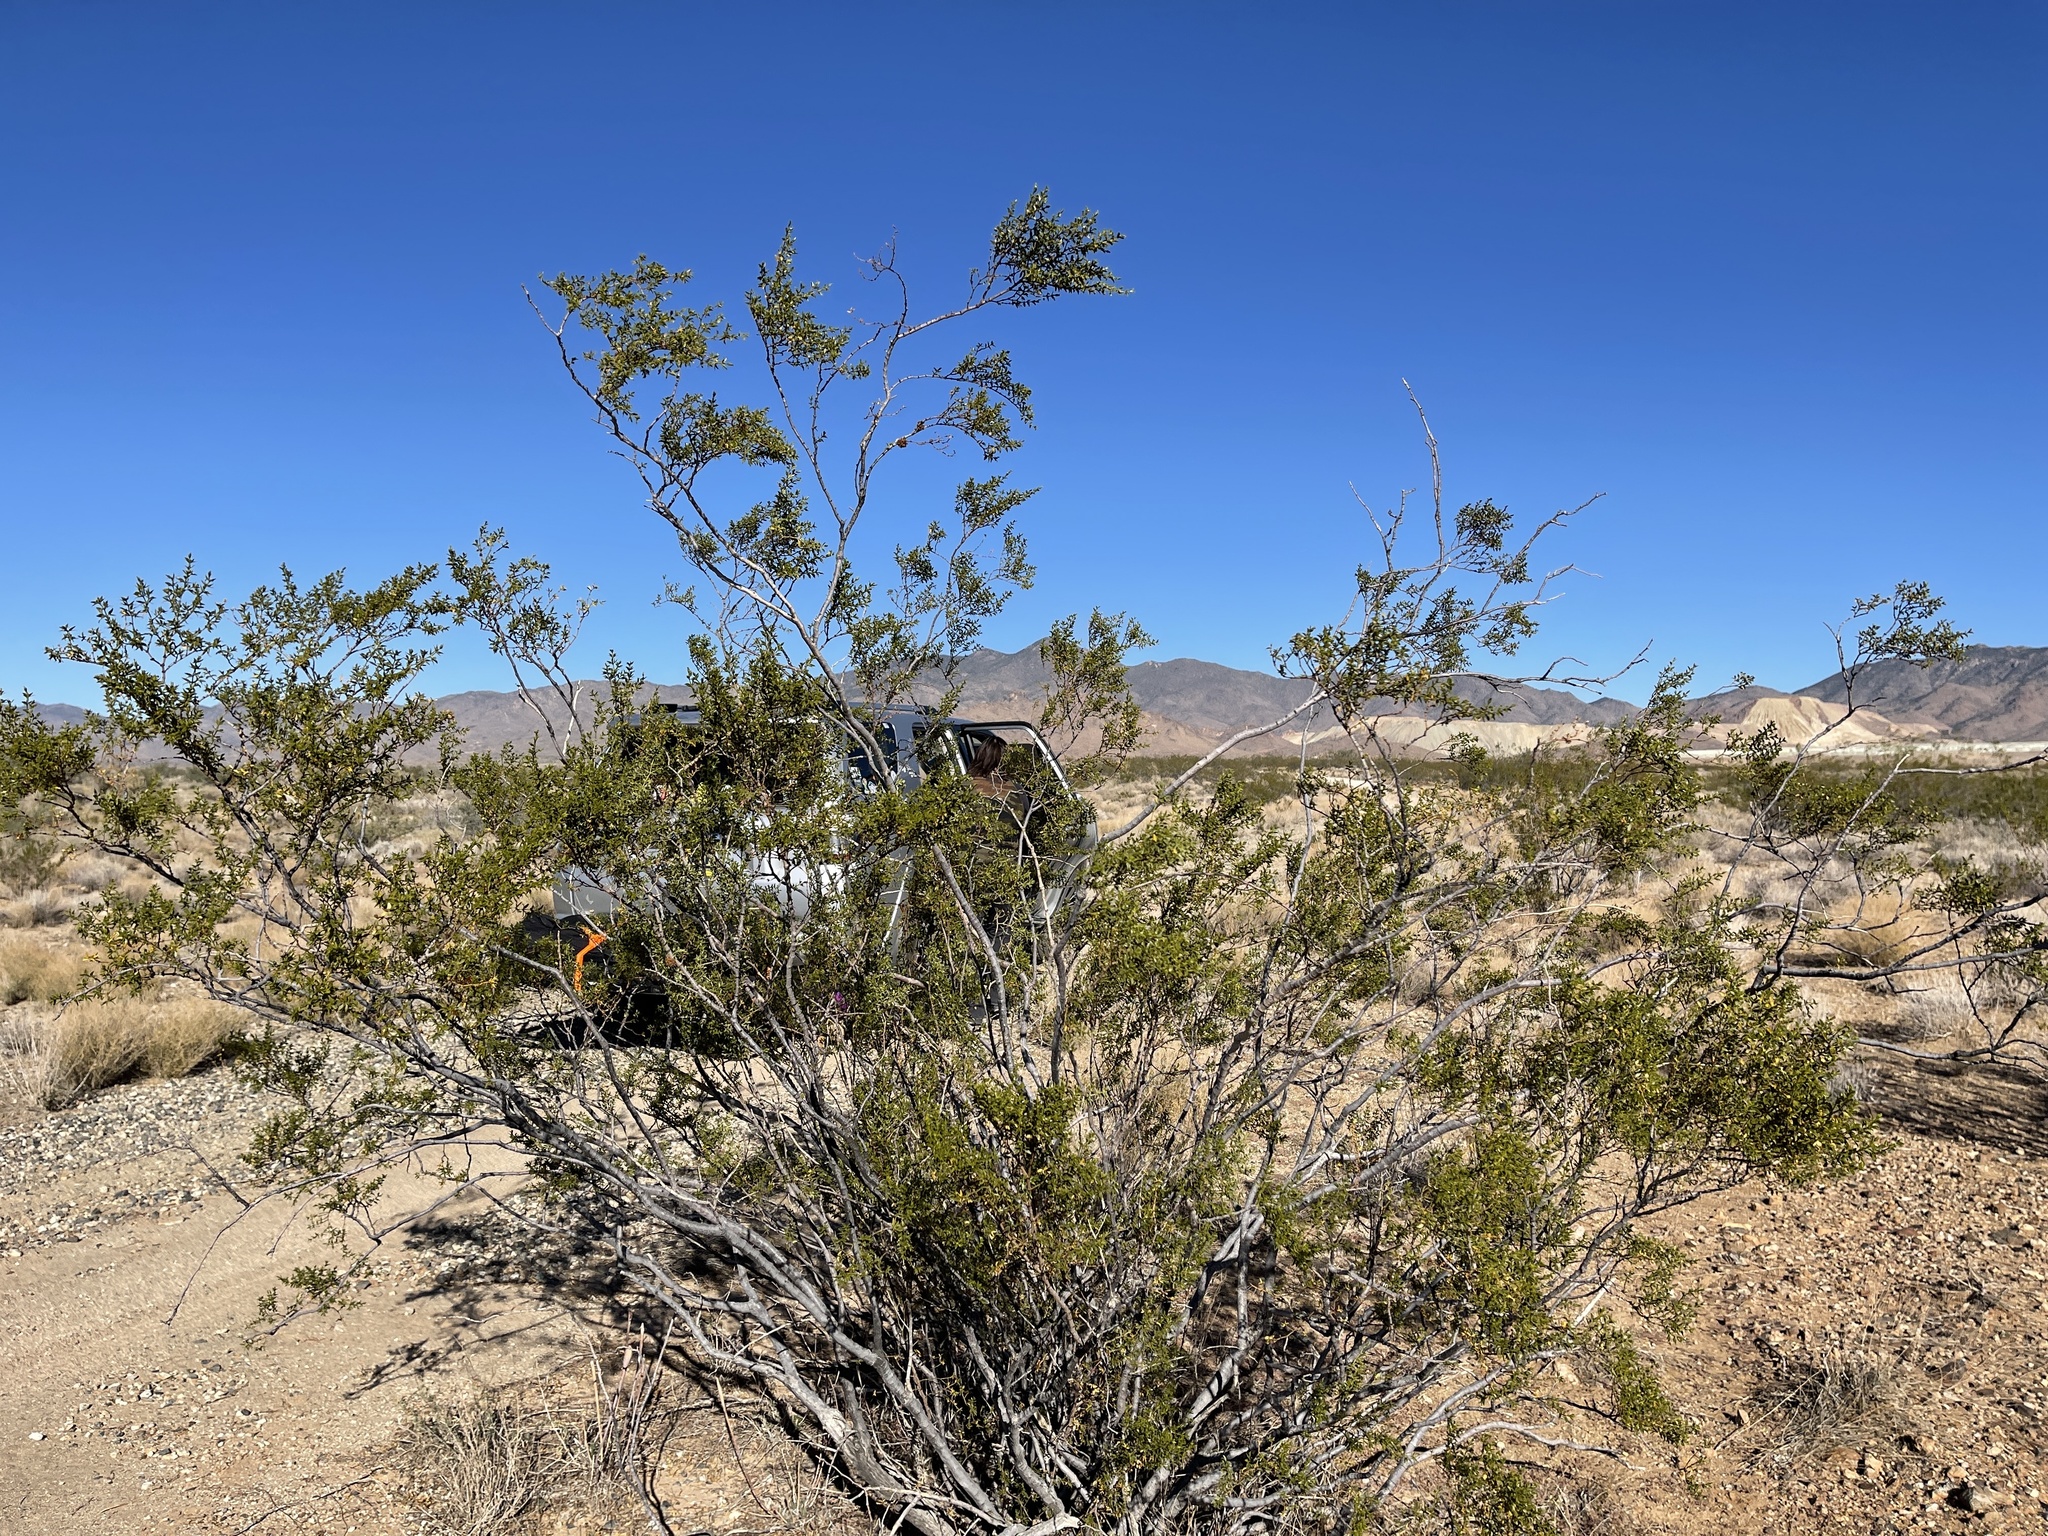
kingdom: Plantae
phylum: Tracheophyta
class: Magnoliopsida
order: Zygophyllales
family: Zygophyllaceae
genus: Larrea
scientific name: Larrea tridentata
